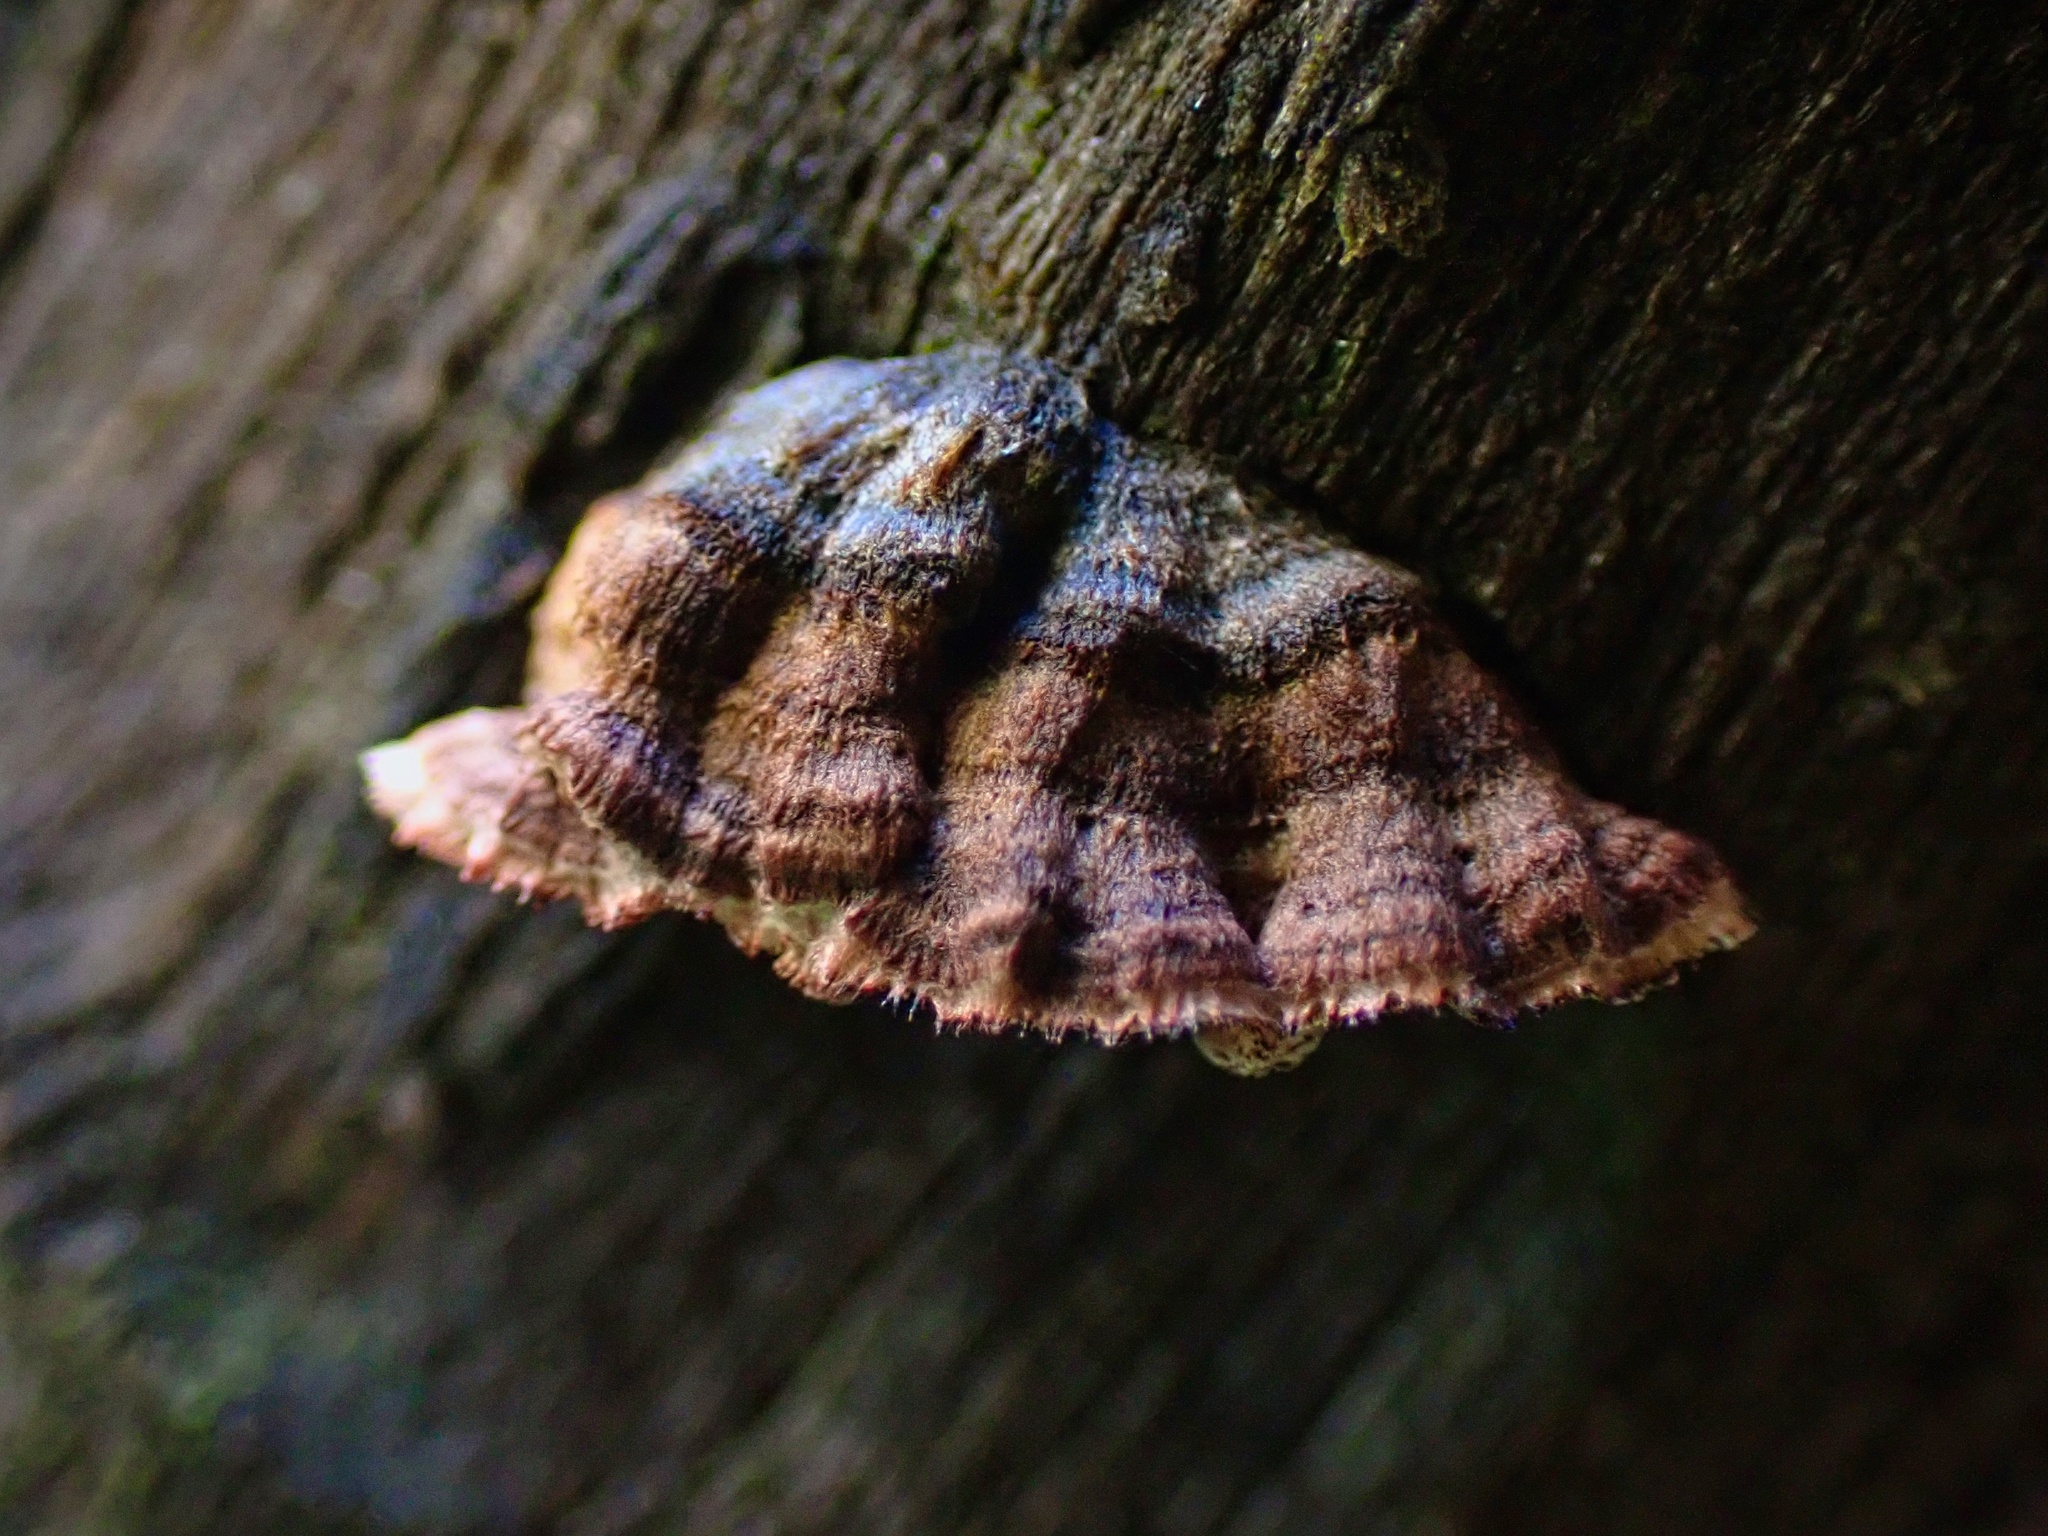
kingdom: Fungi
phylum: Basidiomycota
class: Agaricomycetes
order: Russulales
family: Peniophoraceae
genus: Peniophora
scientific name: Peniophora albobadia
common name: Giraffe spots
